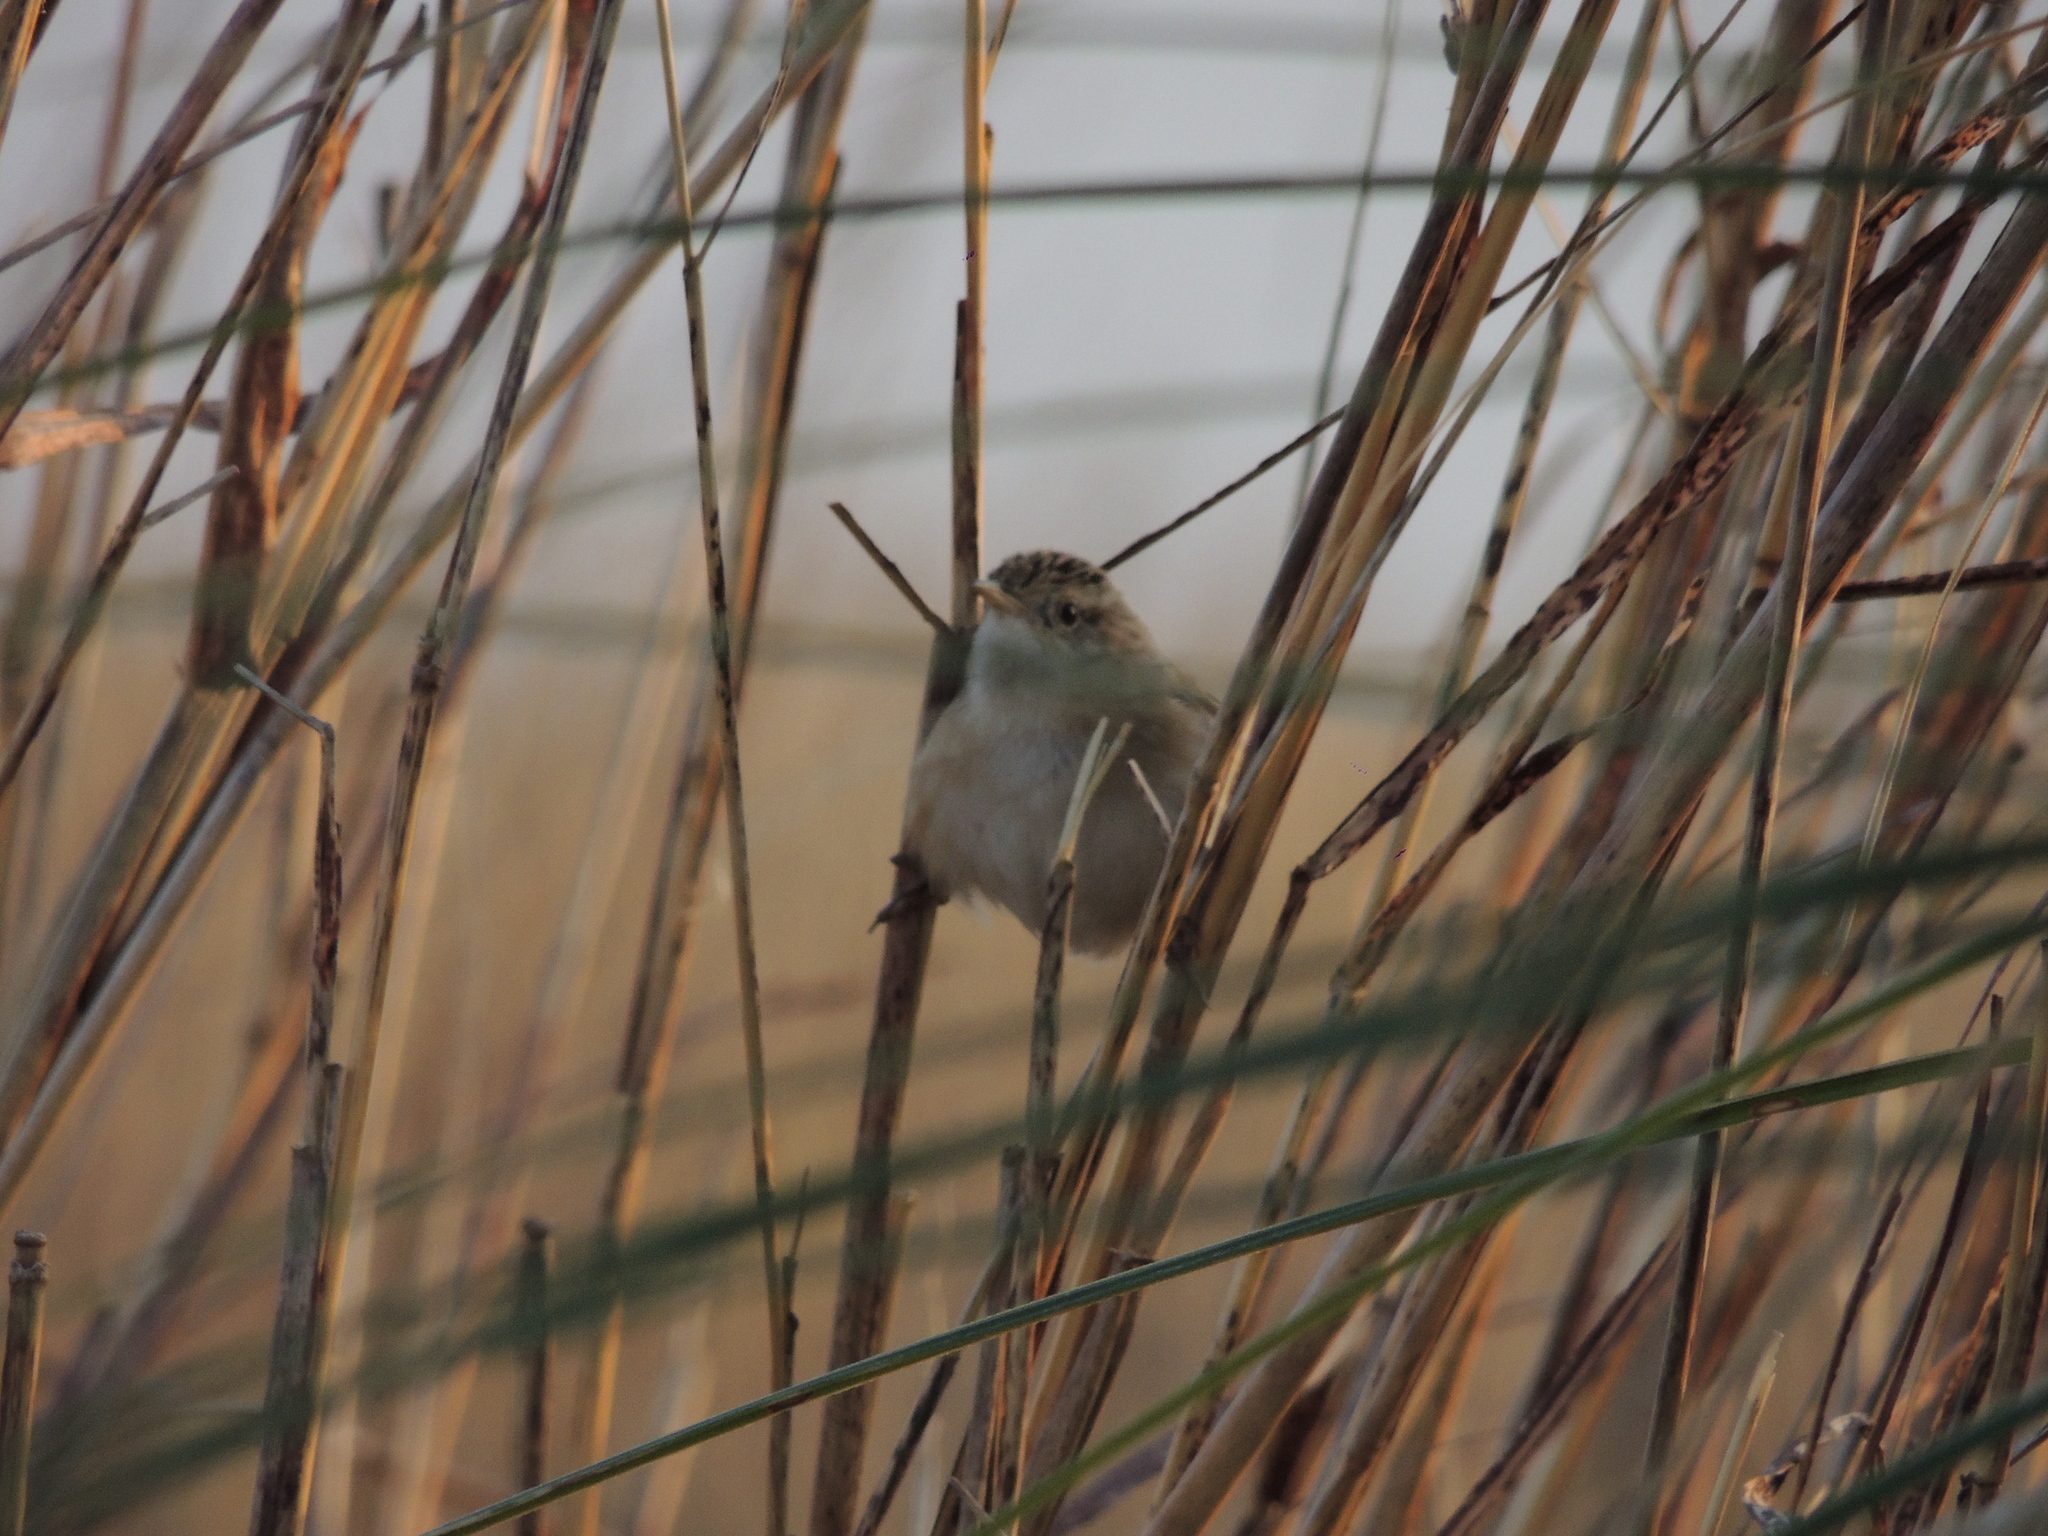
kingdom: Animalia
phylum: Chordata
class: Aves
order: Passeriformes
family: Troglodytidae
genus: Cistothorus
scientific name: Cistothorus platensis
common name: Sedge wren
